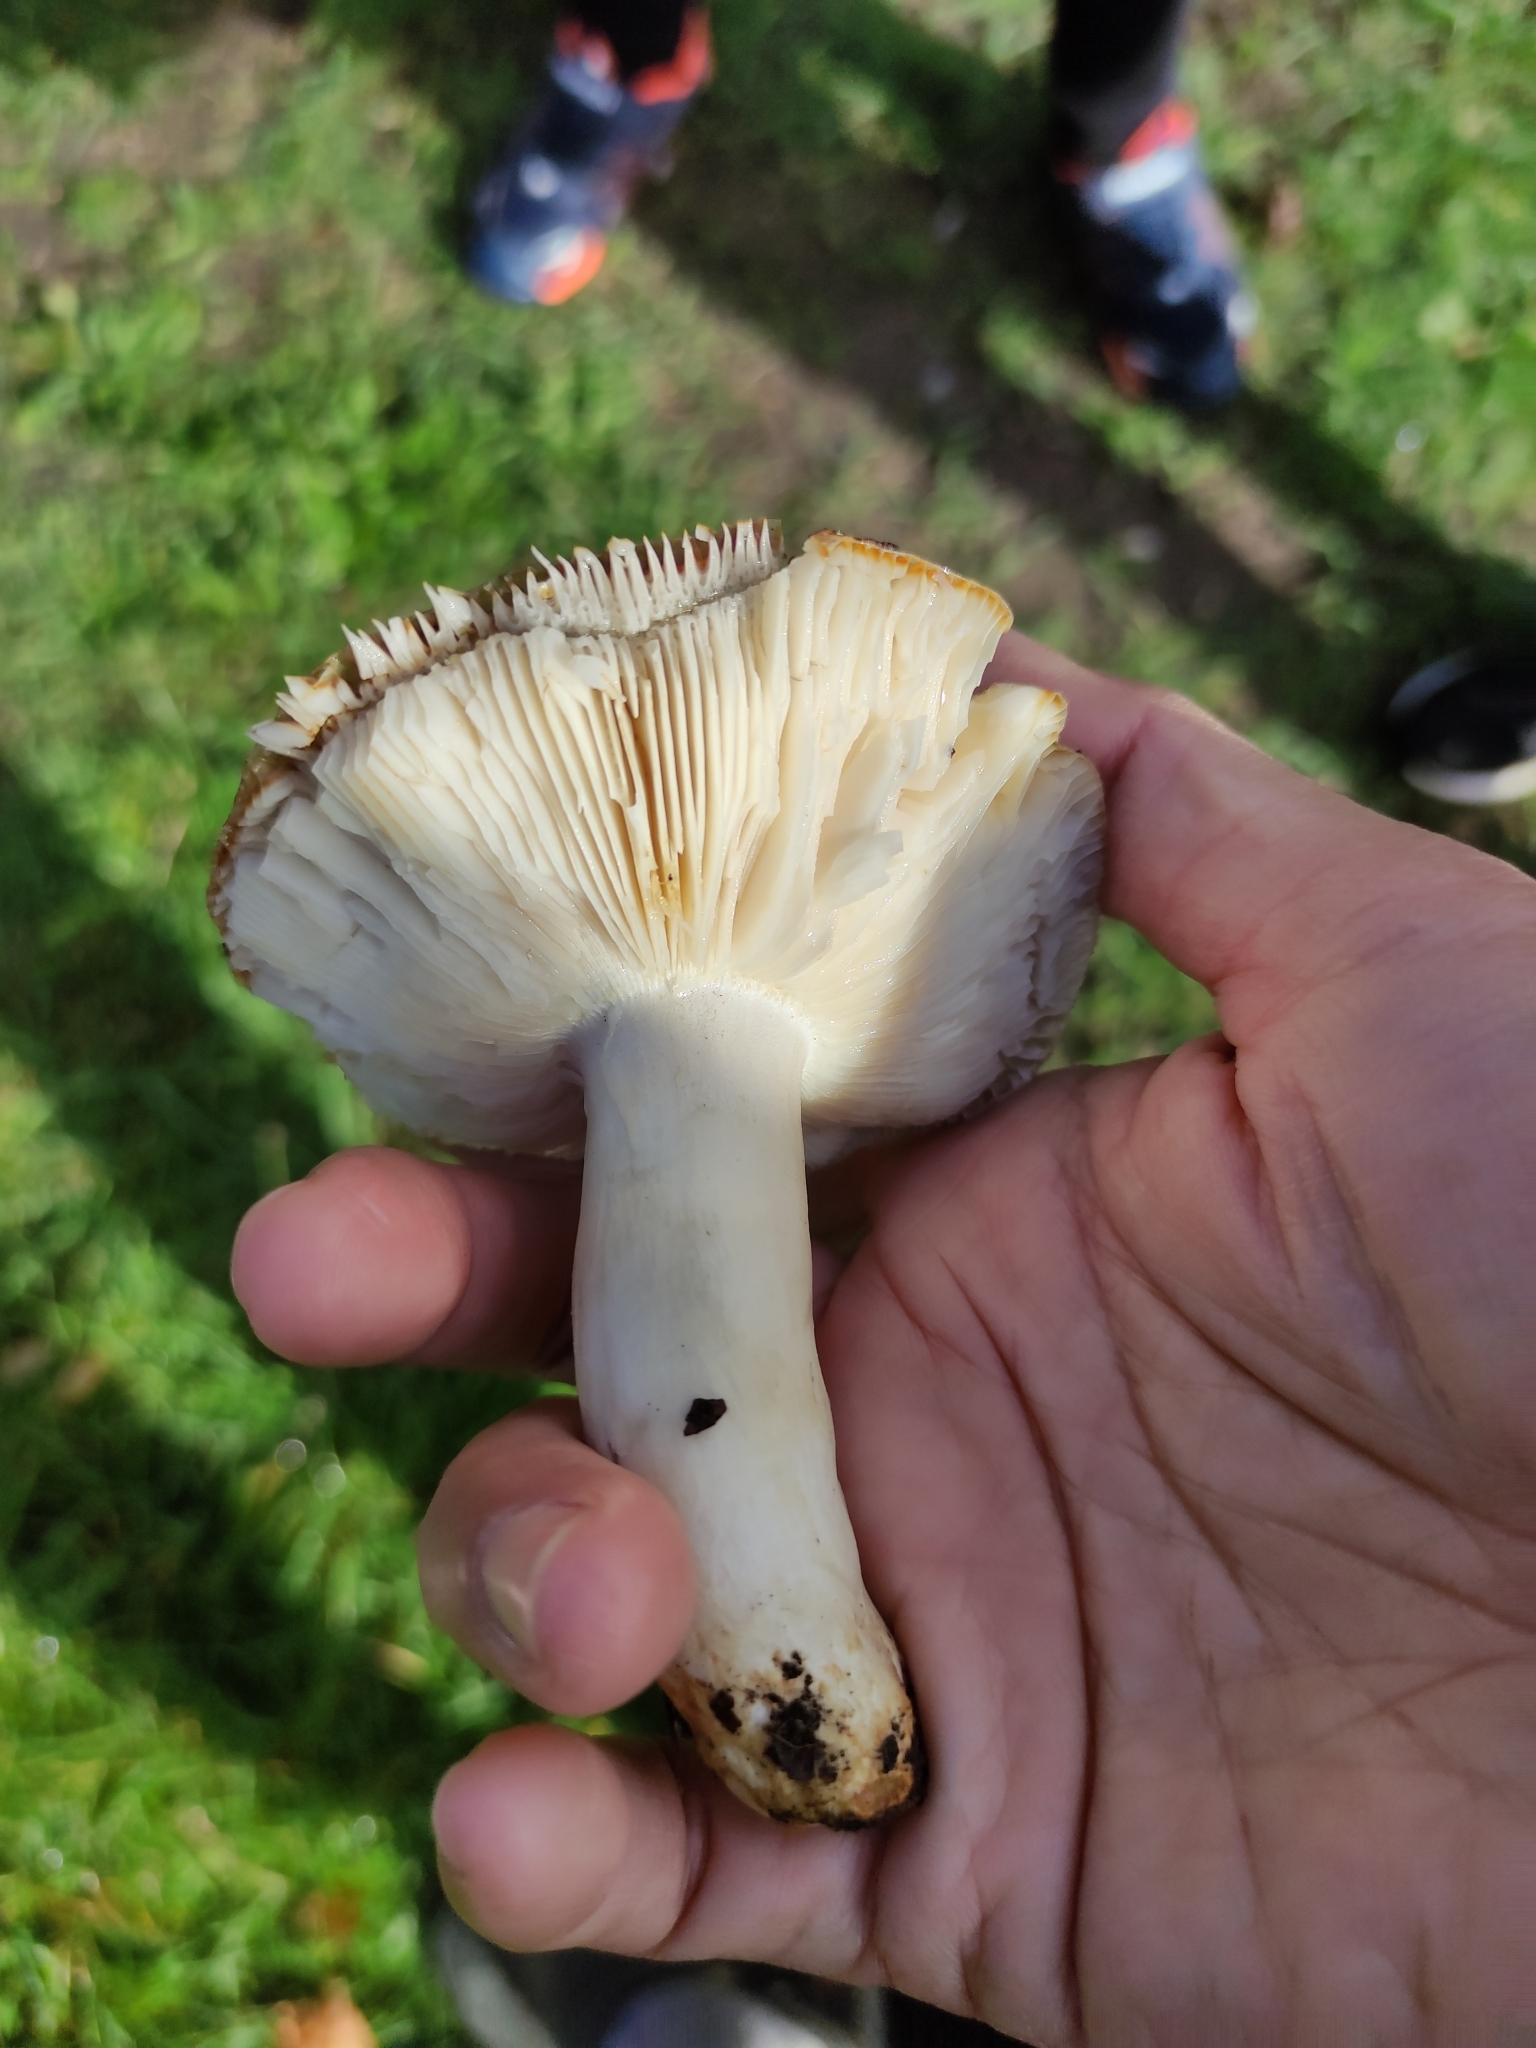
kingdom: Fungi
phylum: Basidiomycota
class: Agaricomycetes
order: Russulales
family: Russulaceae
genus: Russula
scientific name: Russula amoenolens
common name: Camembert brittlegill
